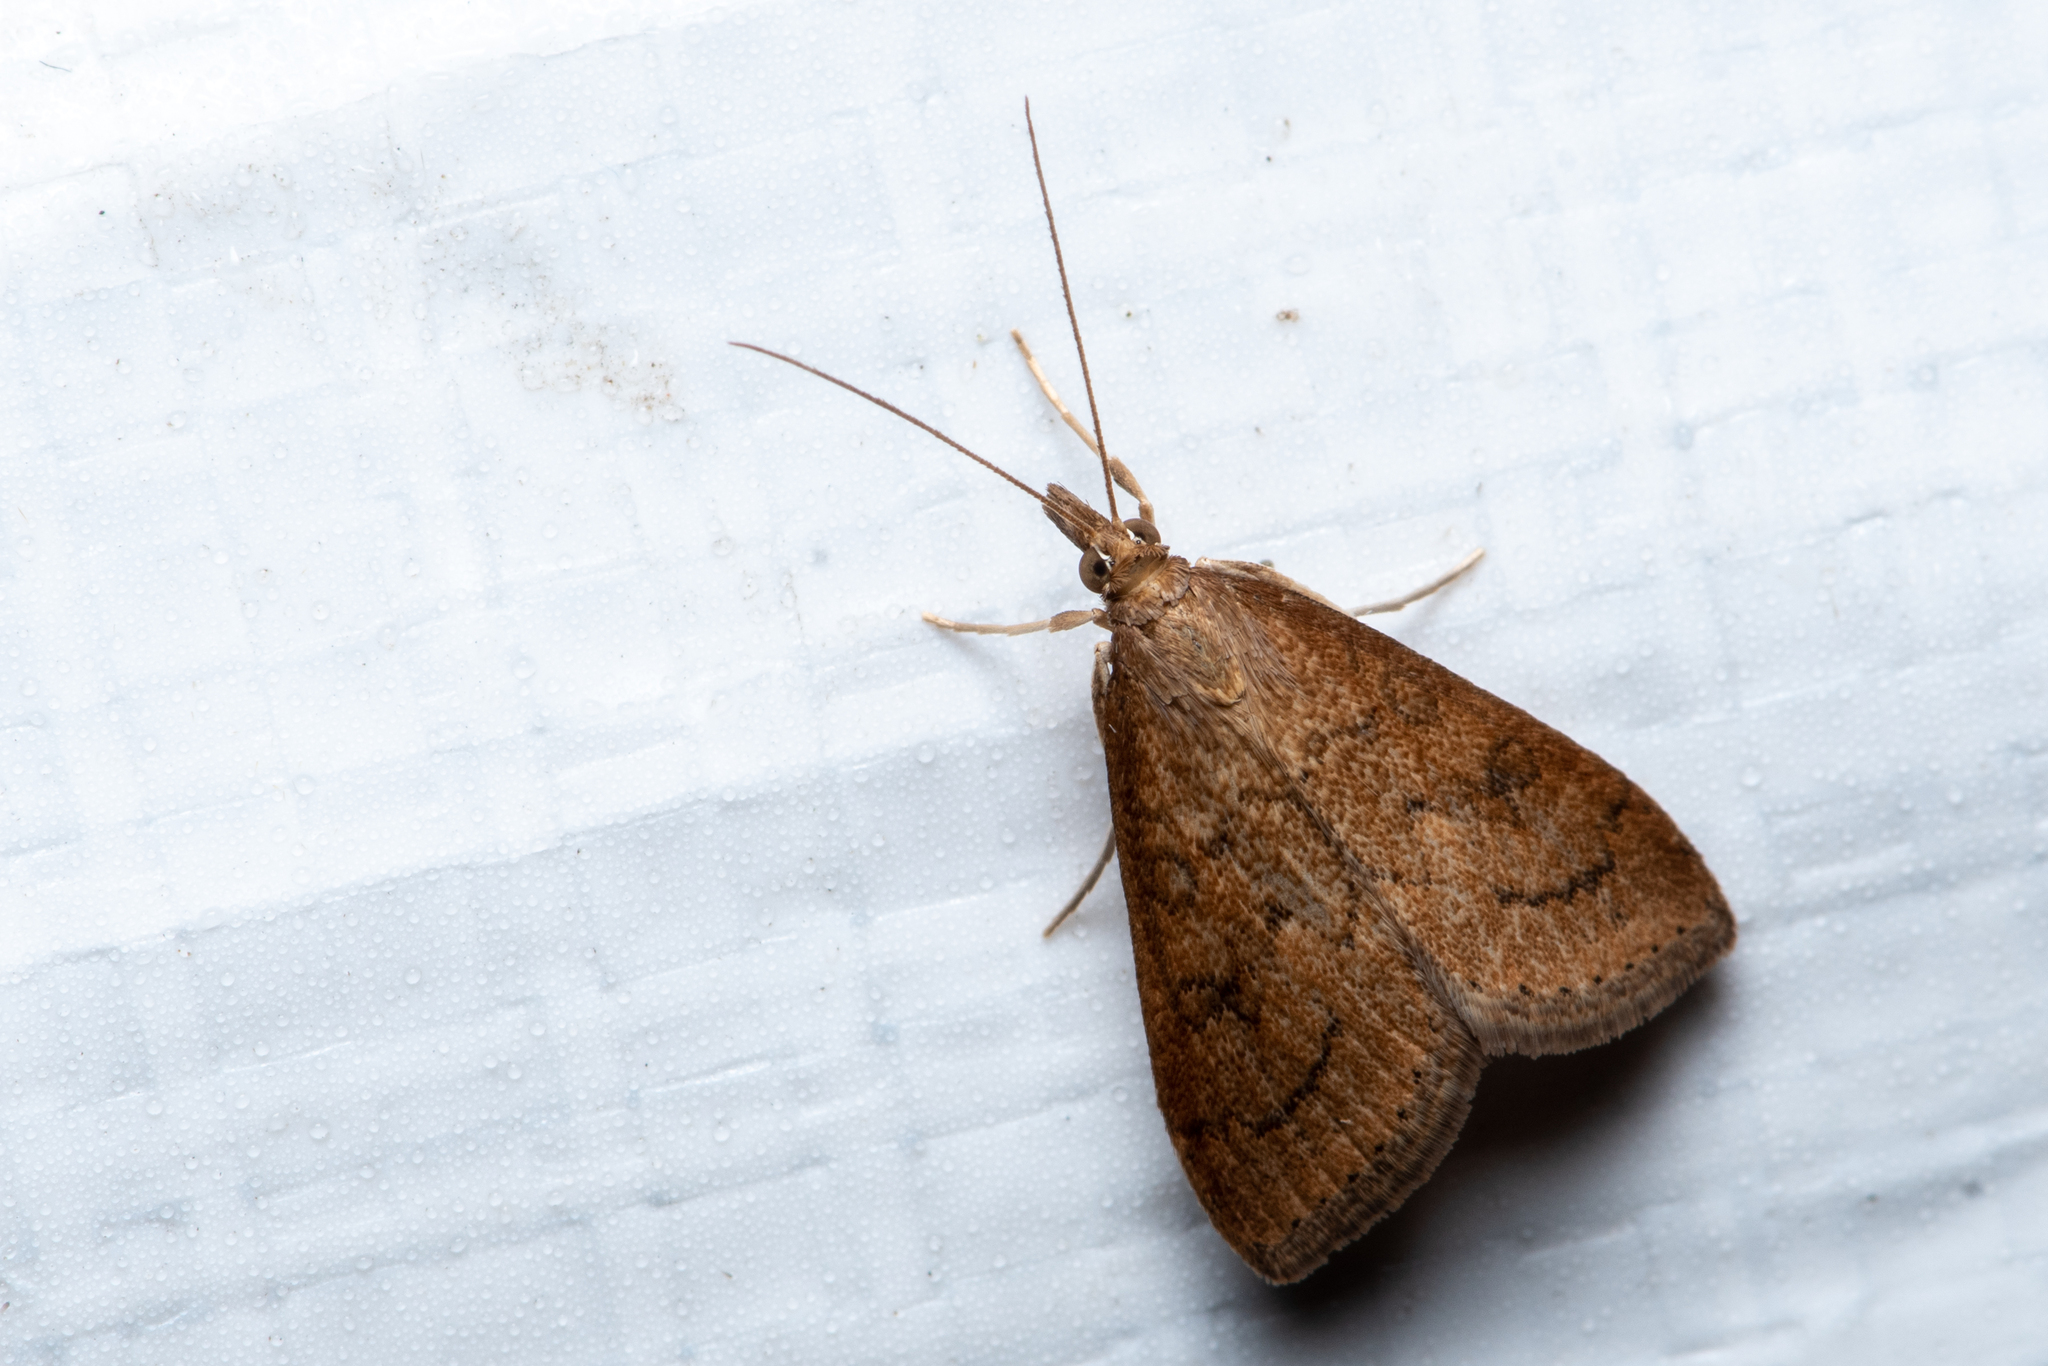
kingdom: Animalia
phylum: Arthropoda
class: Insecta
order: Lepidoptera
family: Crambidae
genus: Udea
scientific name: Udea rubigalis
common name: Celery leaftier moth
